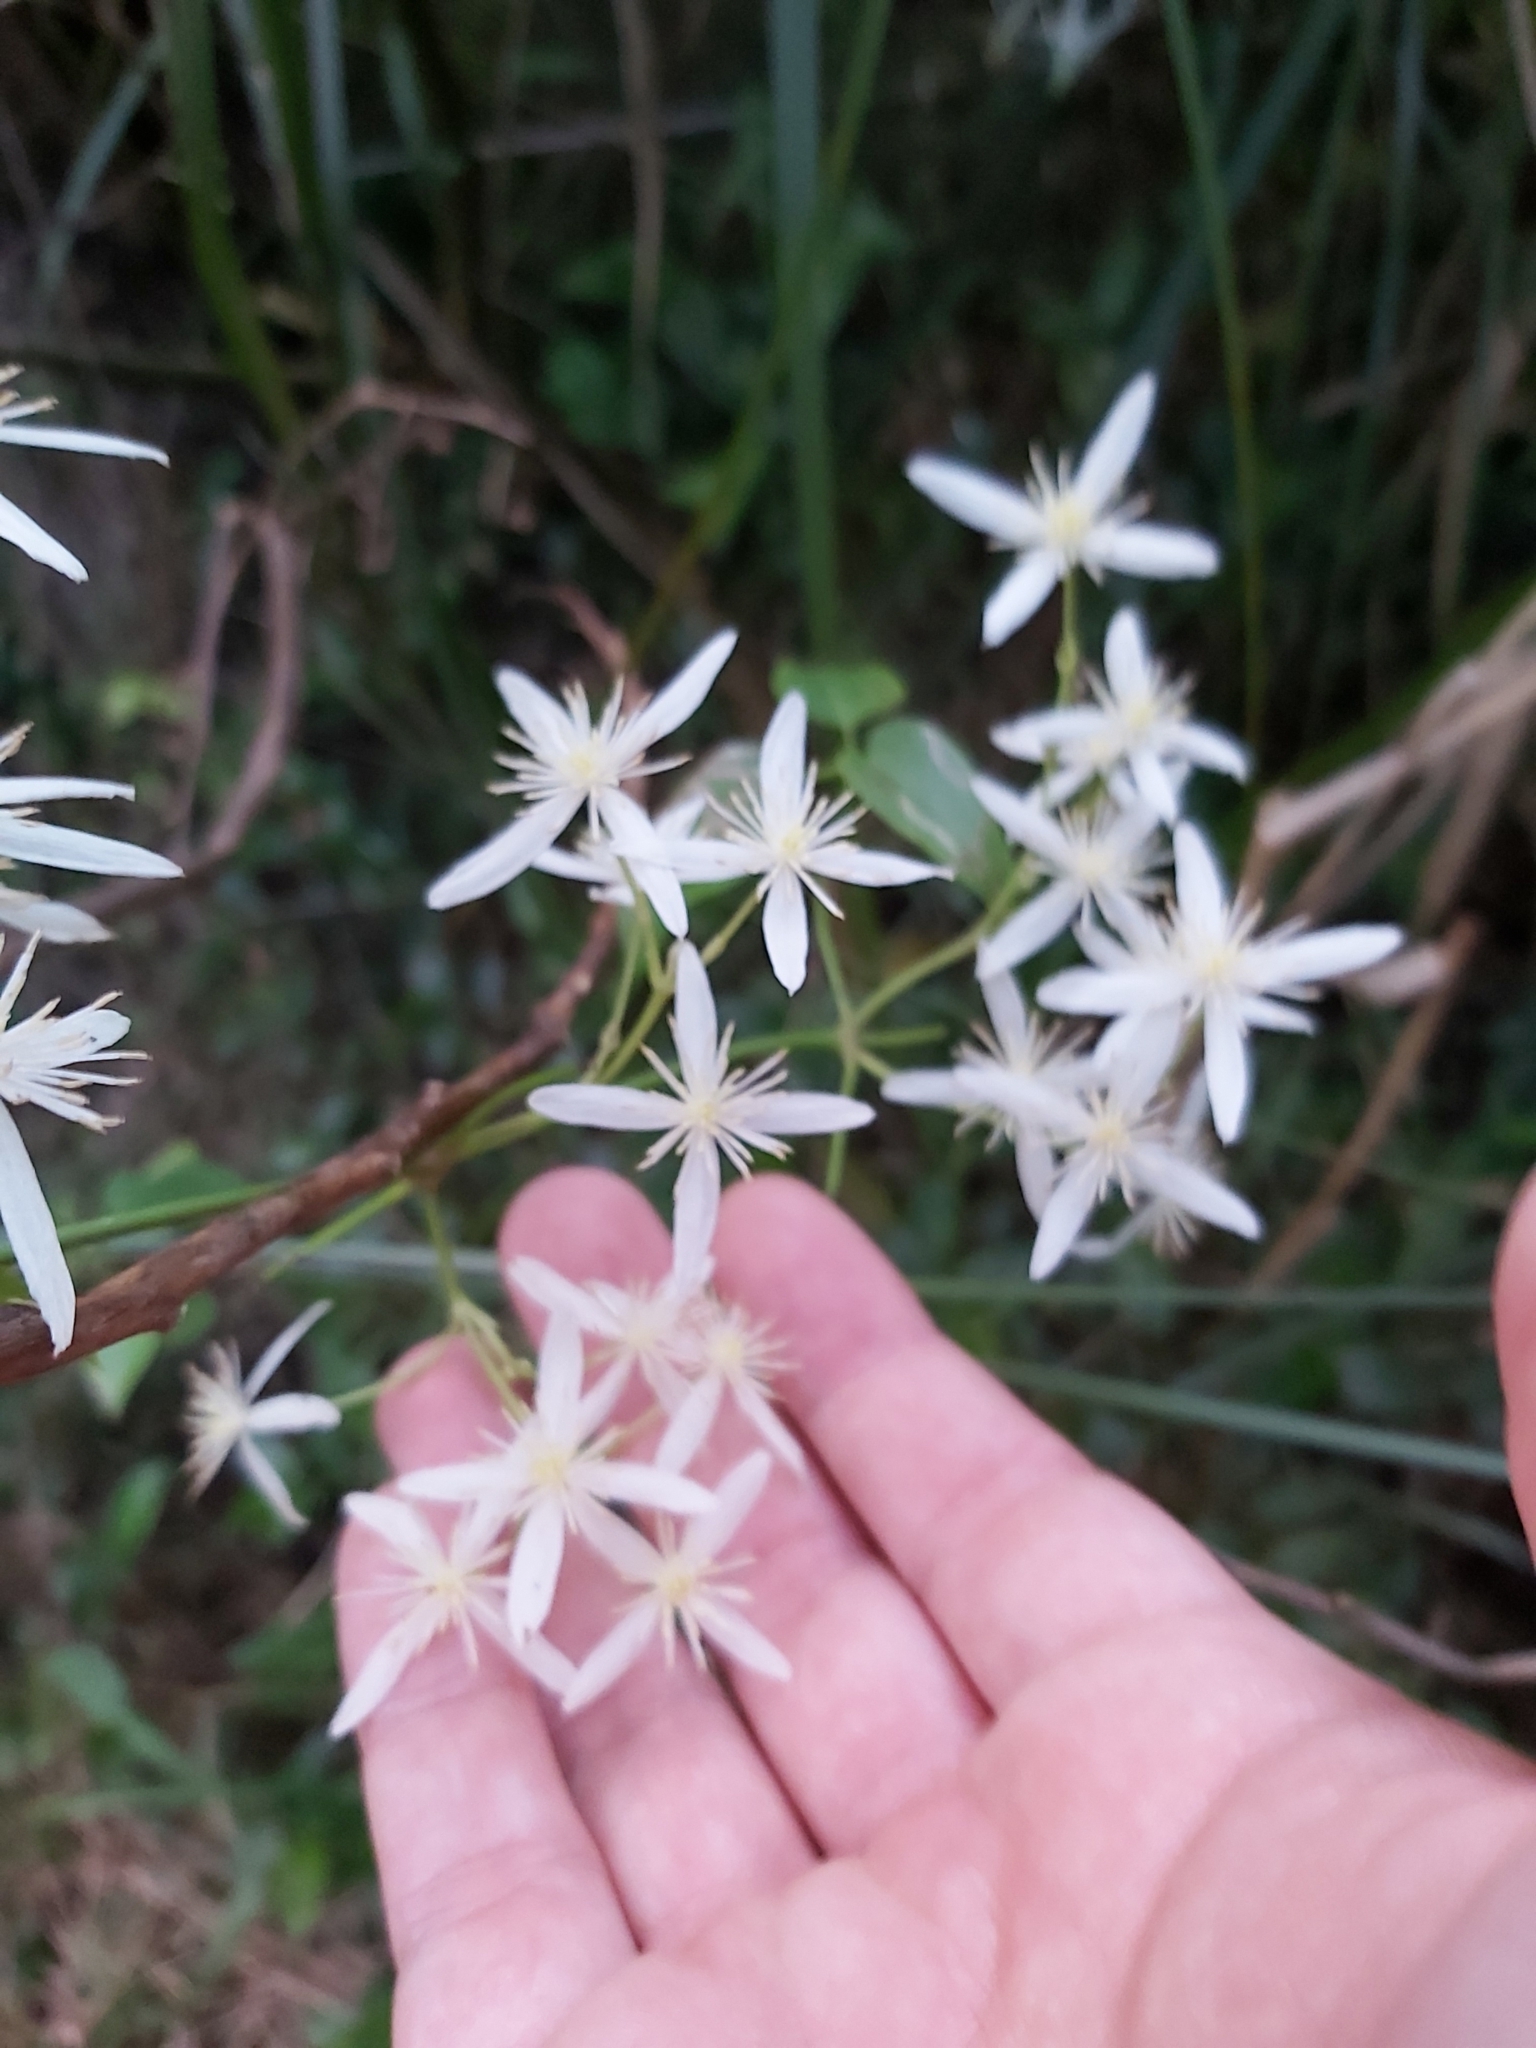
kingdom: Plantae
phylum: Tracheophyta
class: Magnoliopsida
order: Ranunculales
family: Ranunculaceae
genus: Clematis
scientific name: Clematis glycinoides
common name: Forest clematis
